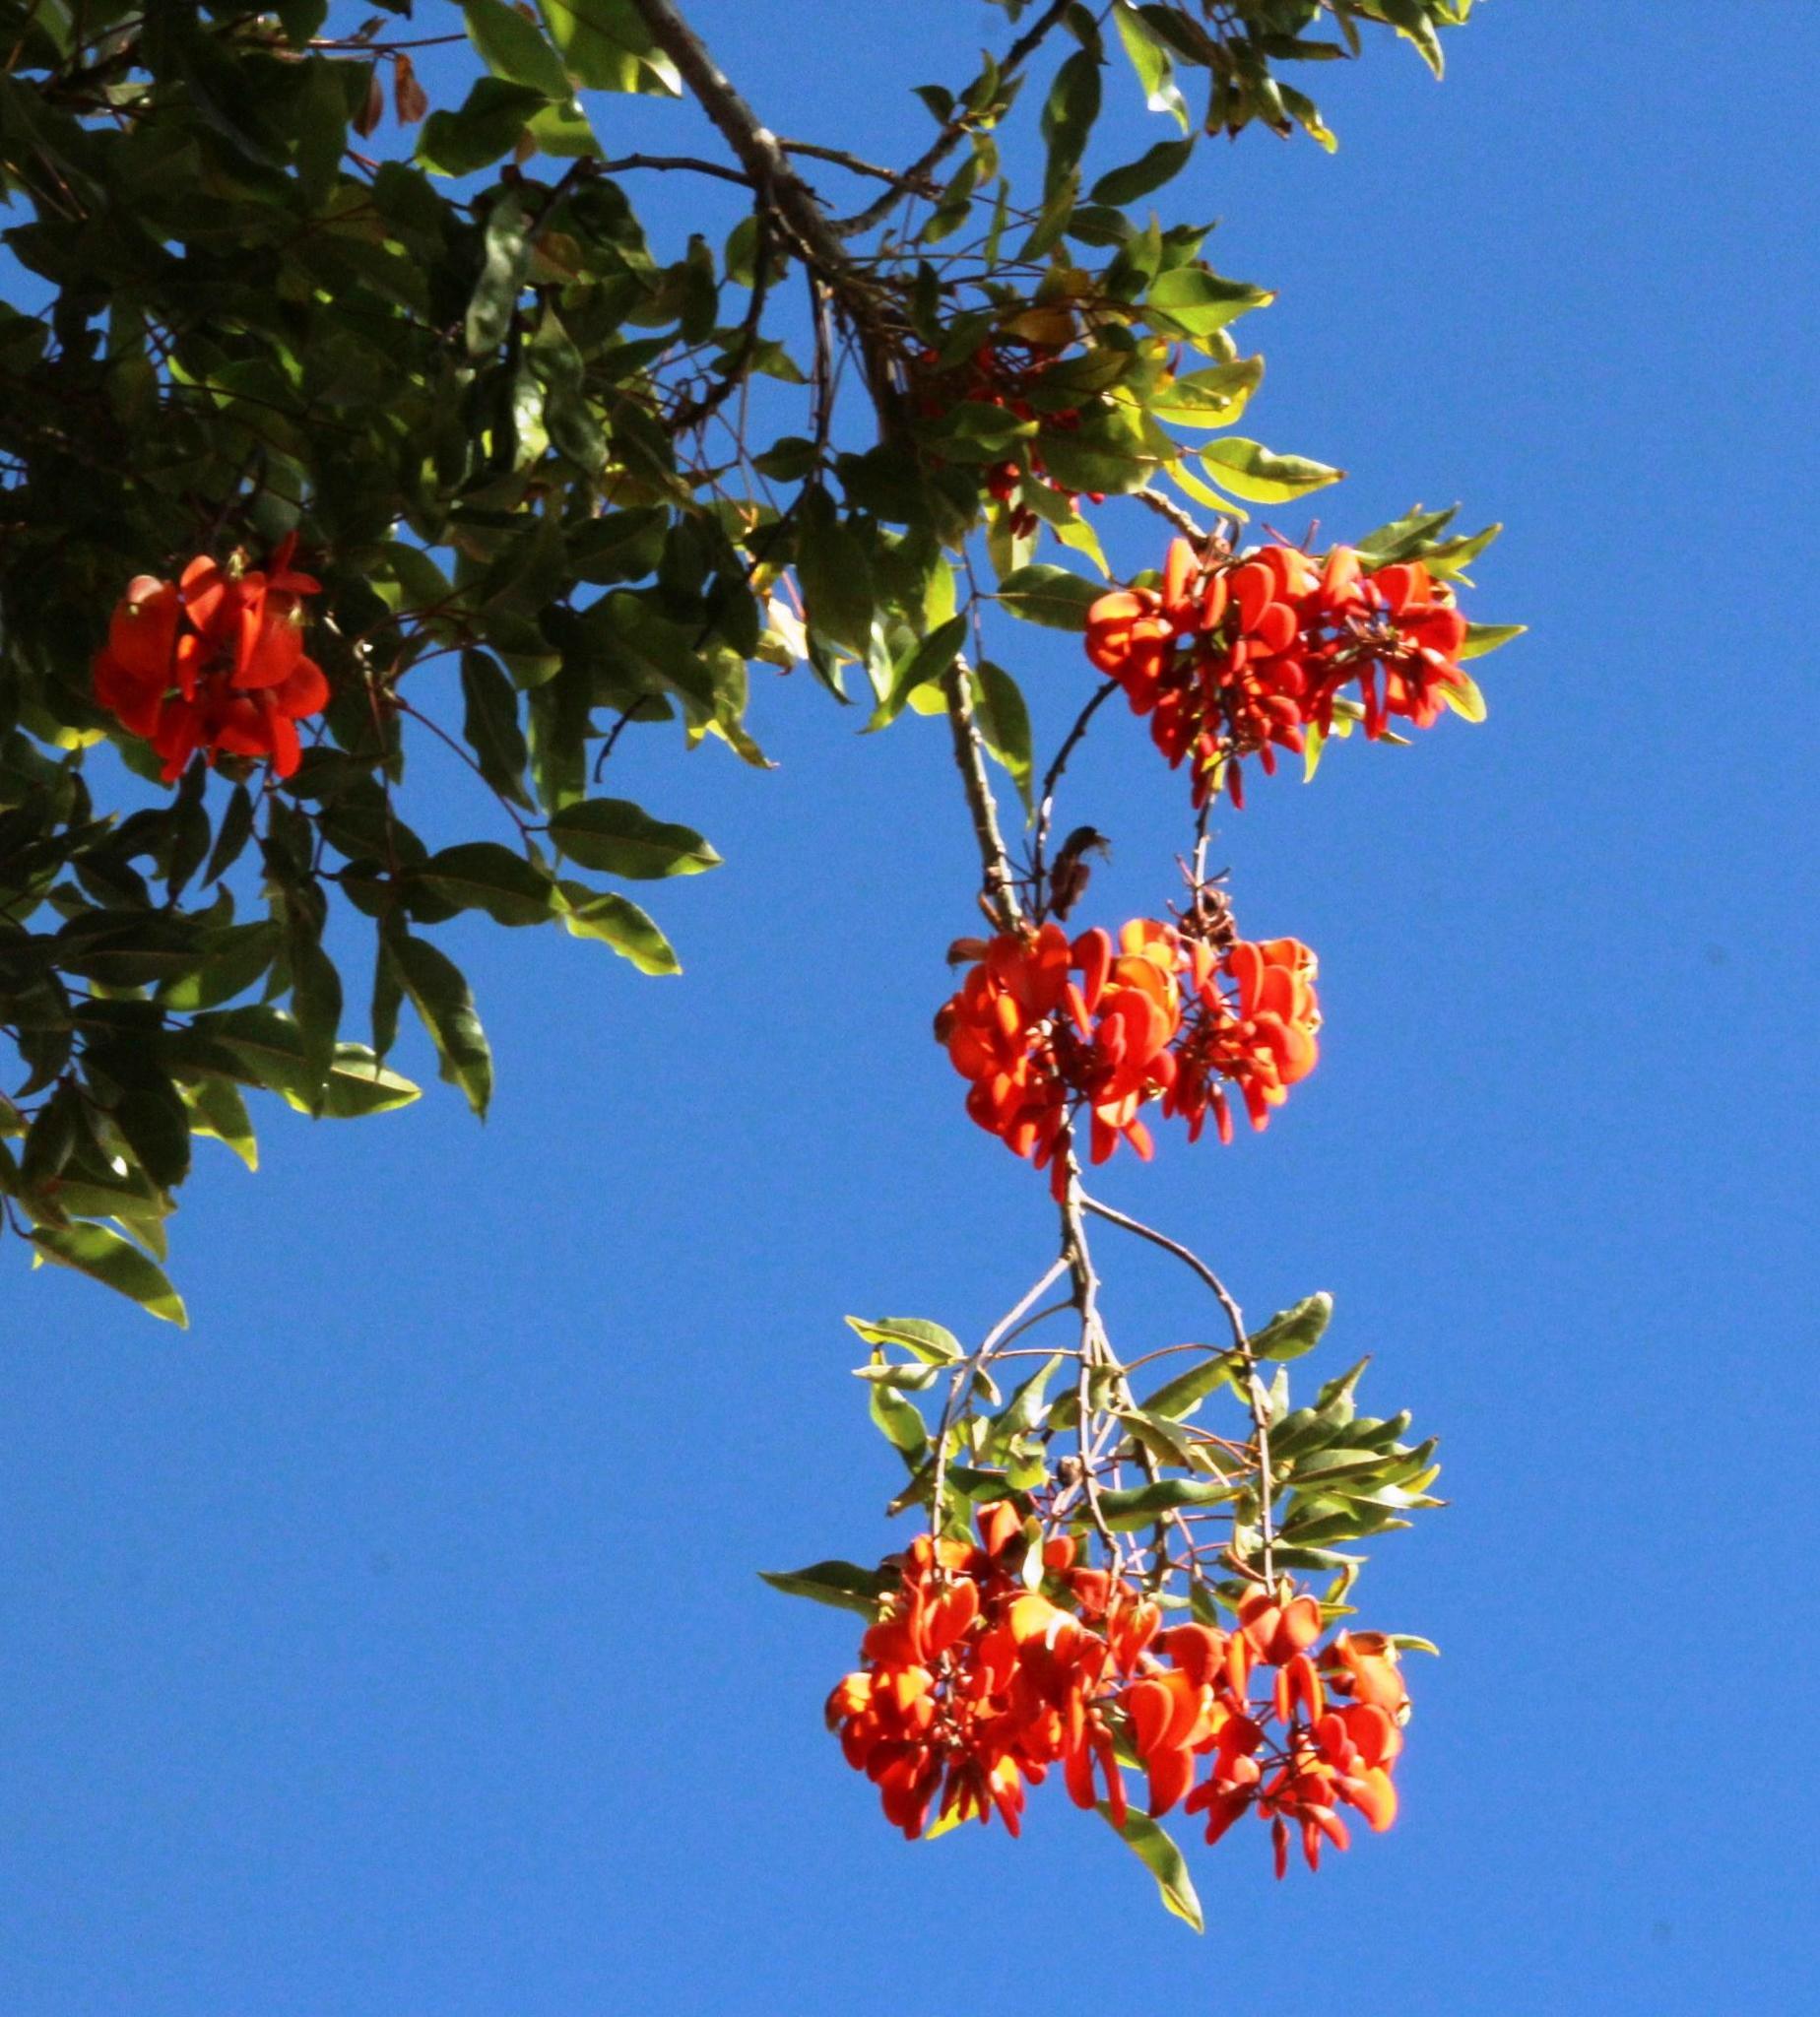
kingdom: Plantae
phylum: Tracheophyta
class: Magnoliopsida
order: Fabales
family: Fabaceae
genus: Erythrina
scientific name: Erythrina falcata
